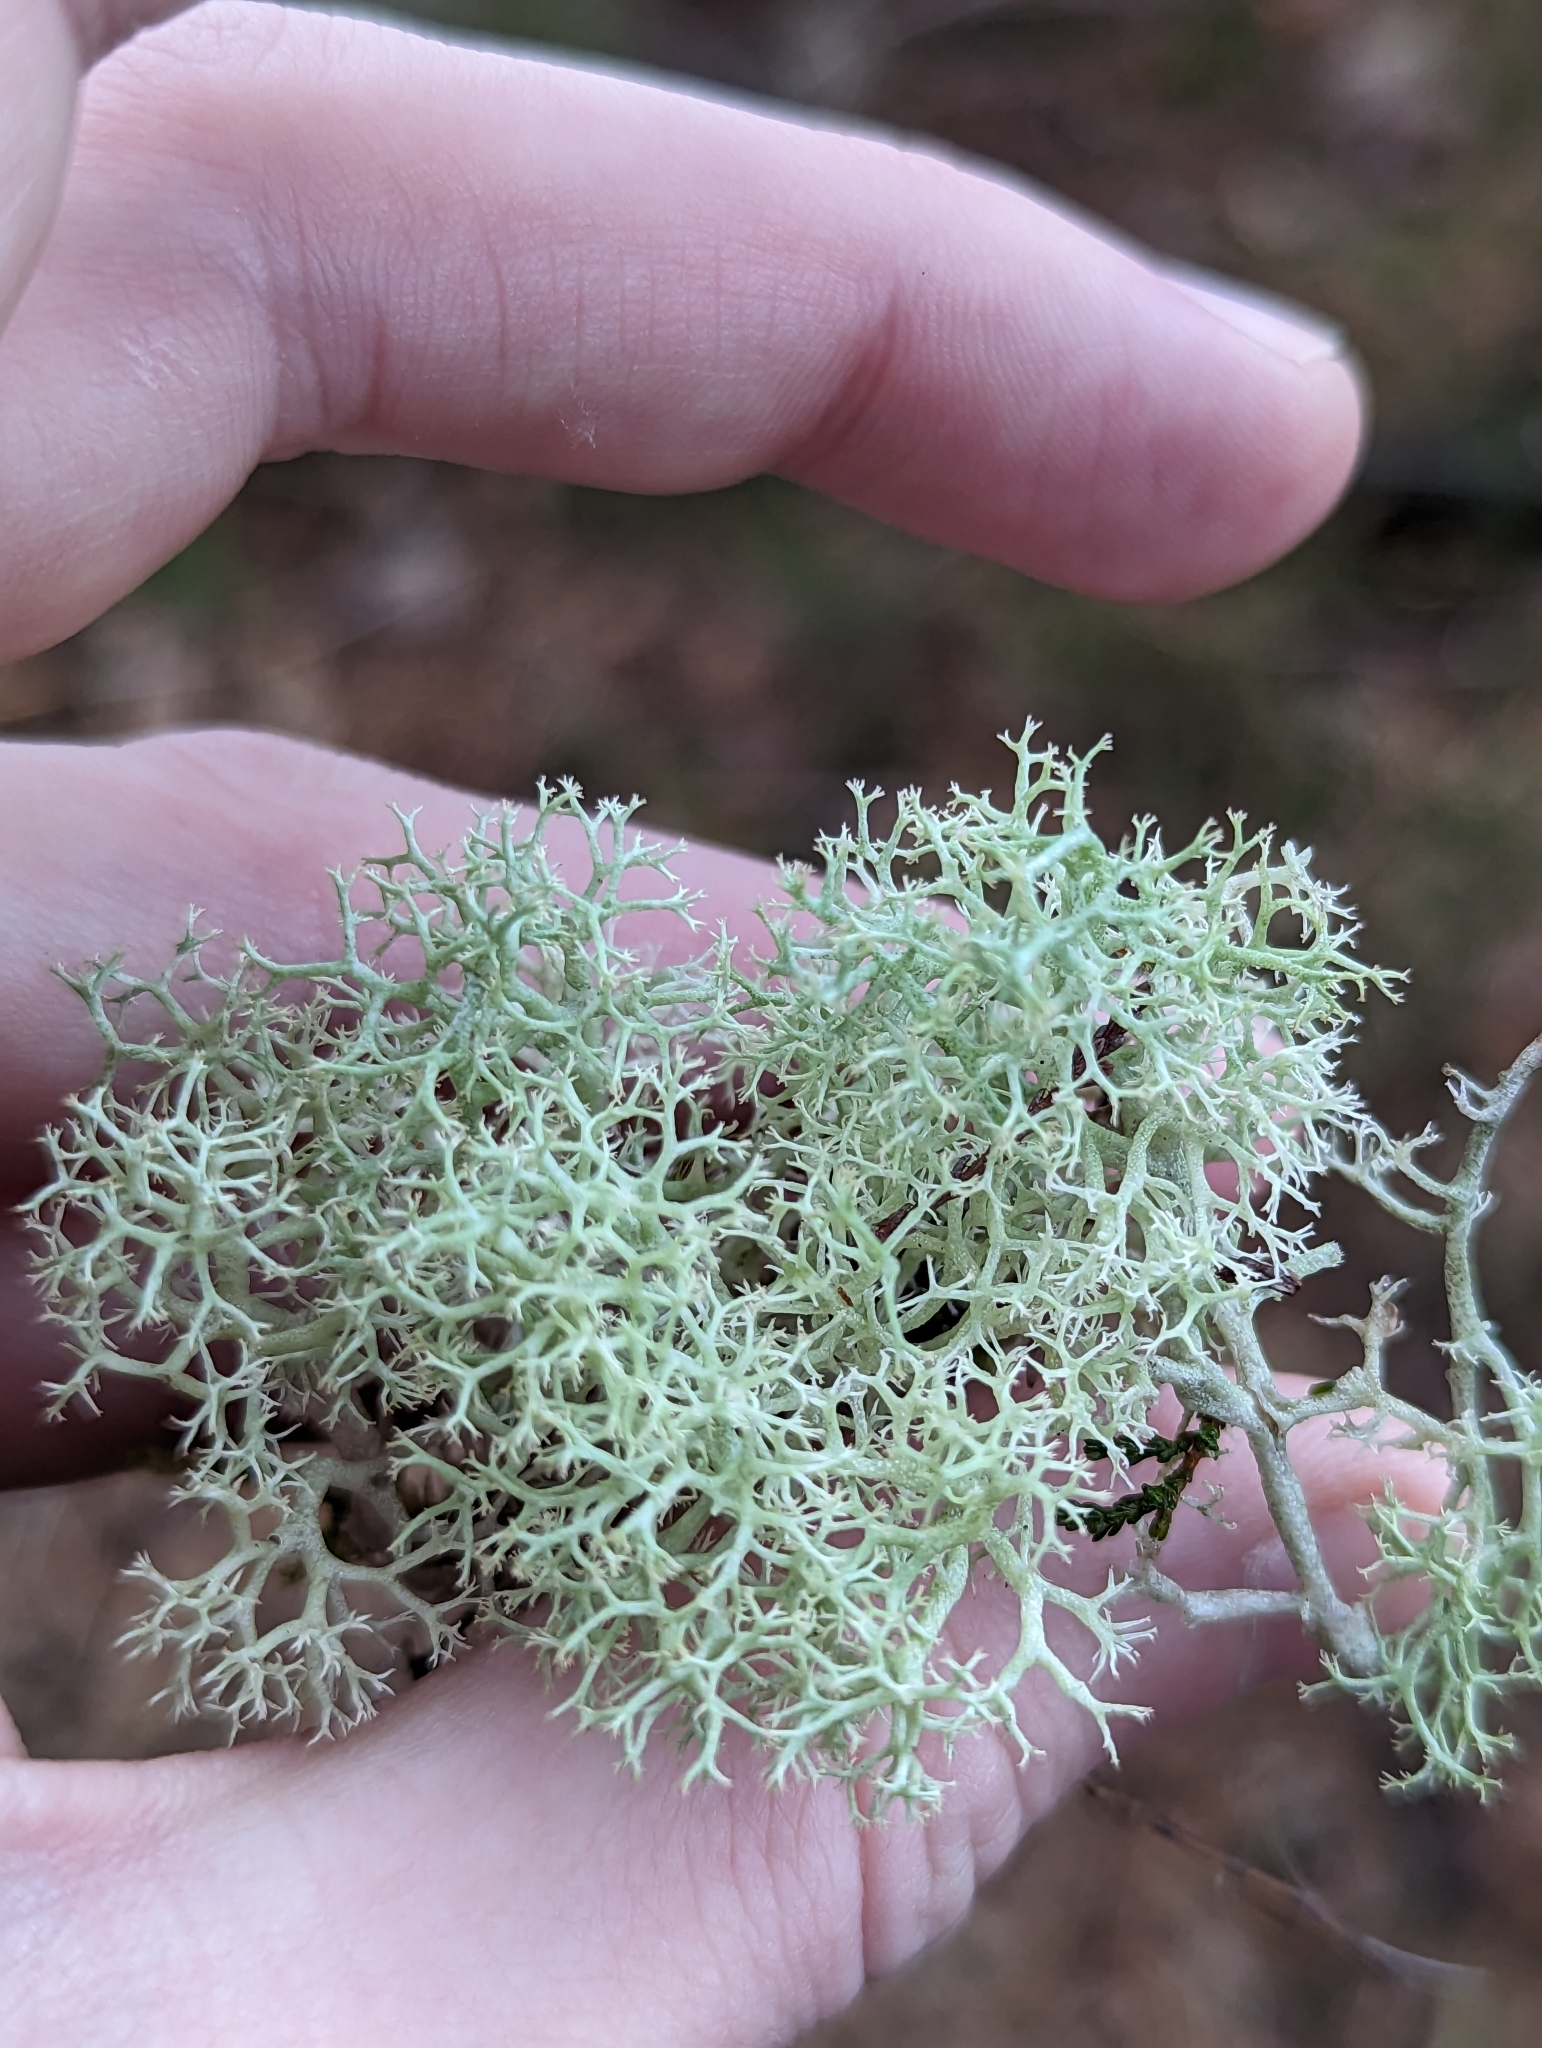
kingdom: Fungi
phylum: Ascomycota
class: Lecanoromycetes
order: Lecanorales
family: Cladoniaceae
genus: Cladonia
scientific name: Cladonia portentosa
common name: Reindeer lichen
